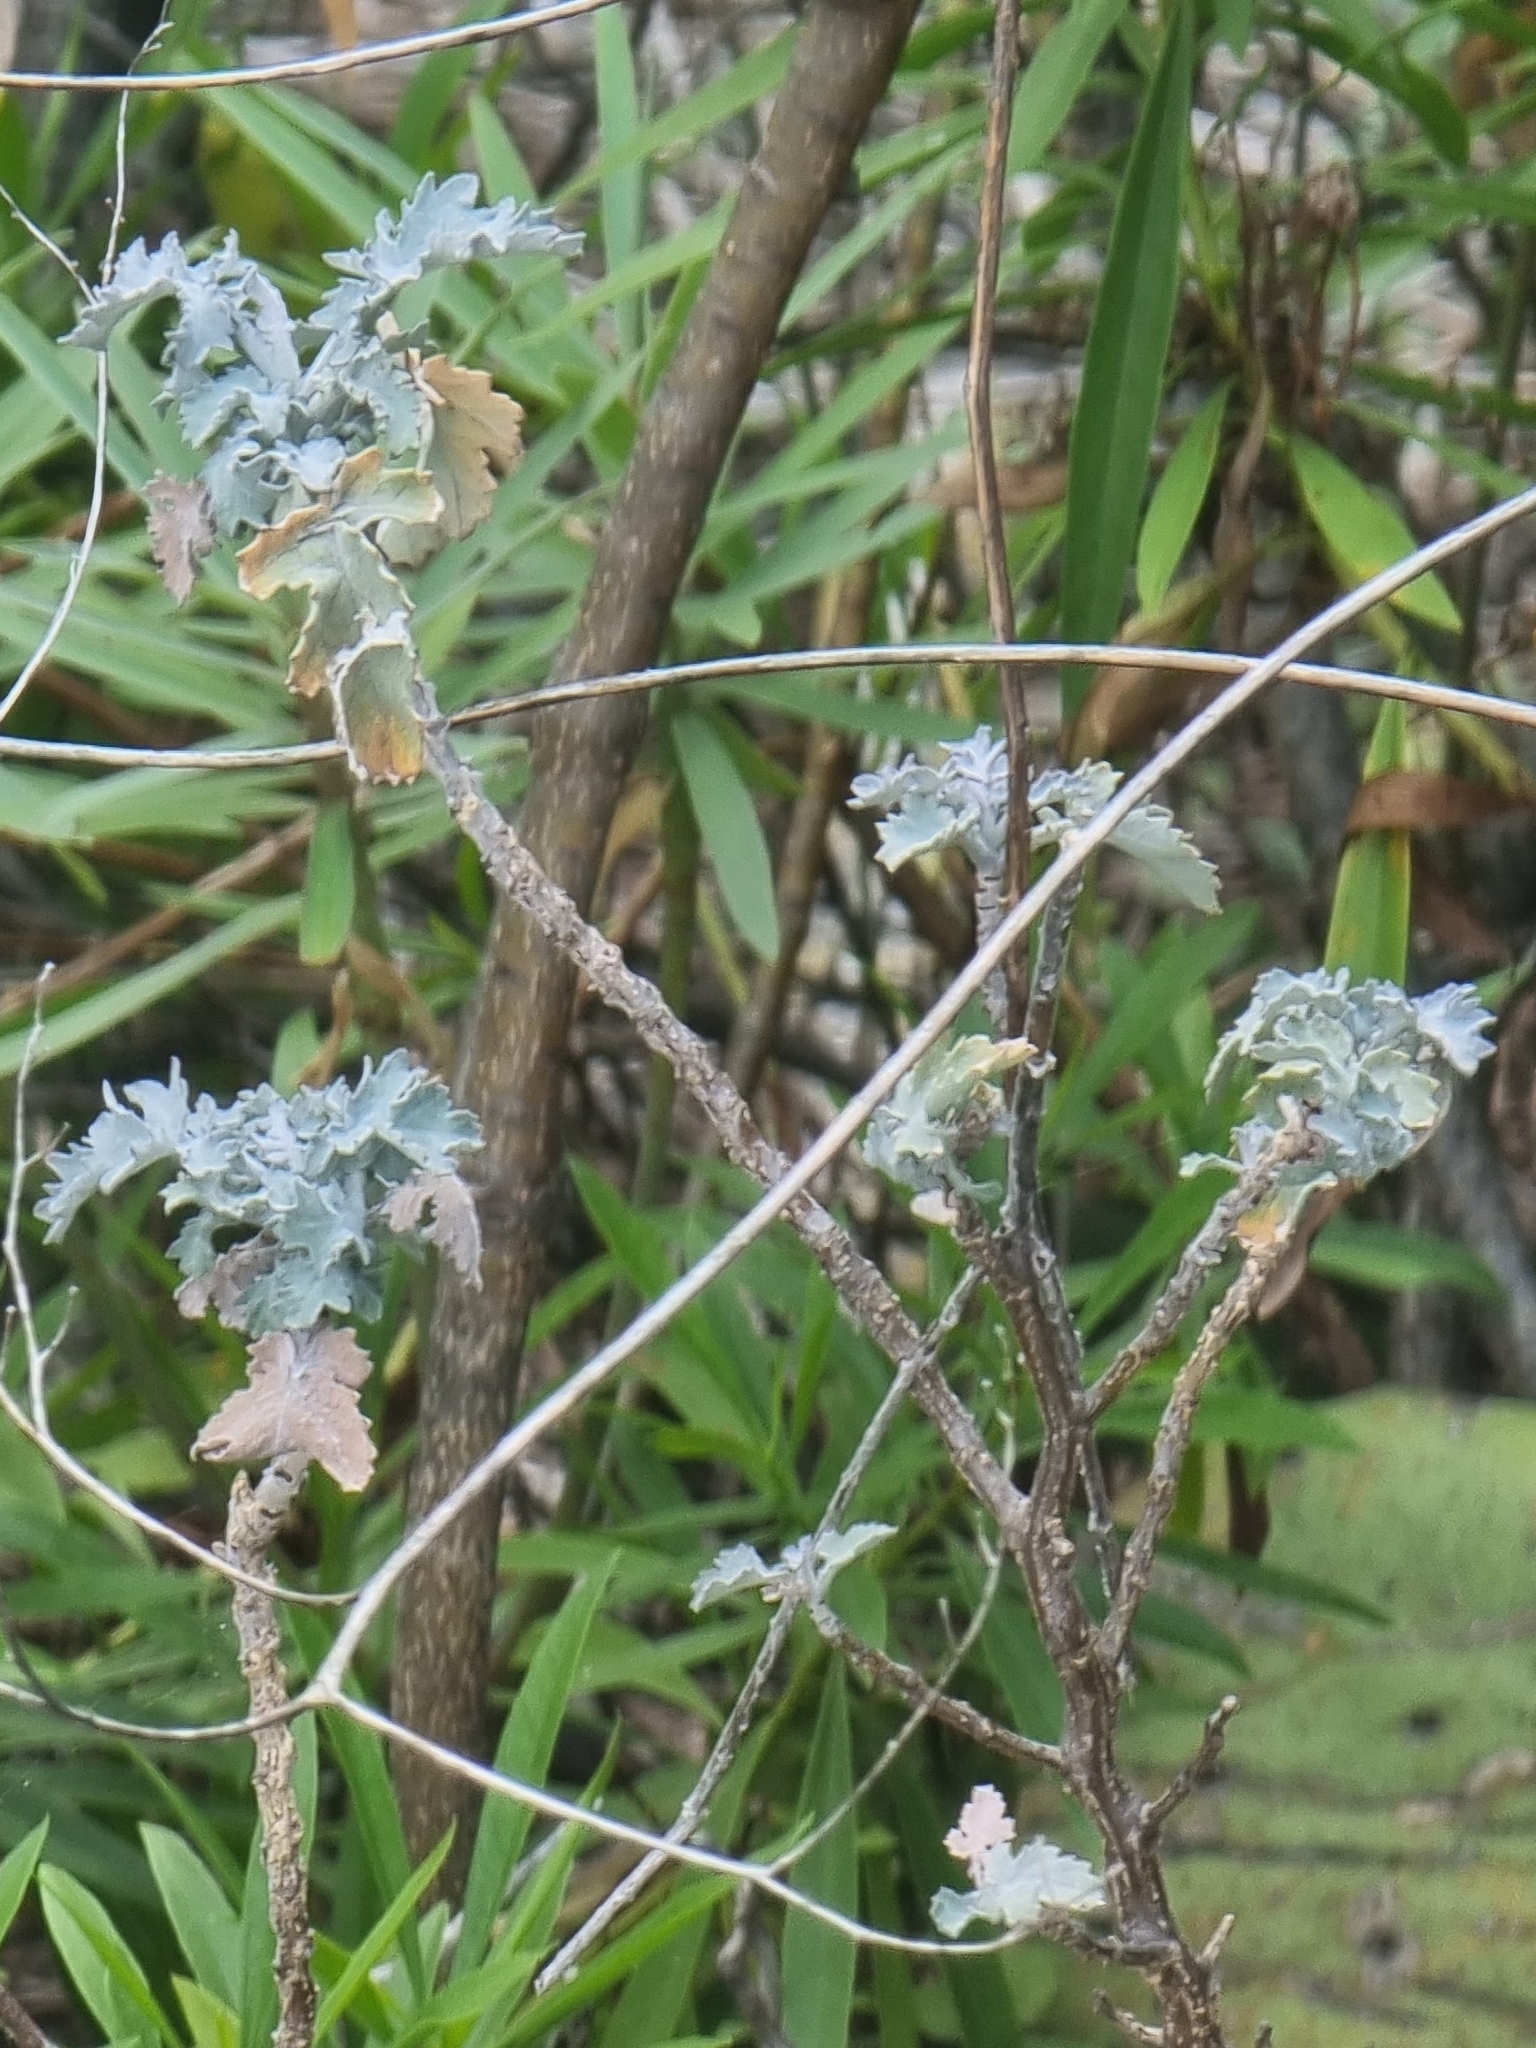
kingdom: Plantae
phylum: Tracheophyta
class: Magnoliopsida
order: Brassicales
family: Brassicaceae
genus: Crambe
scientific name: Crambe fruticosa
